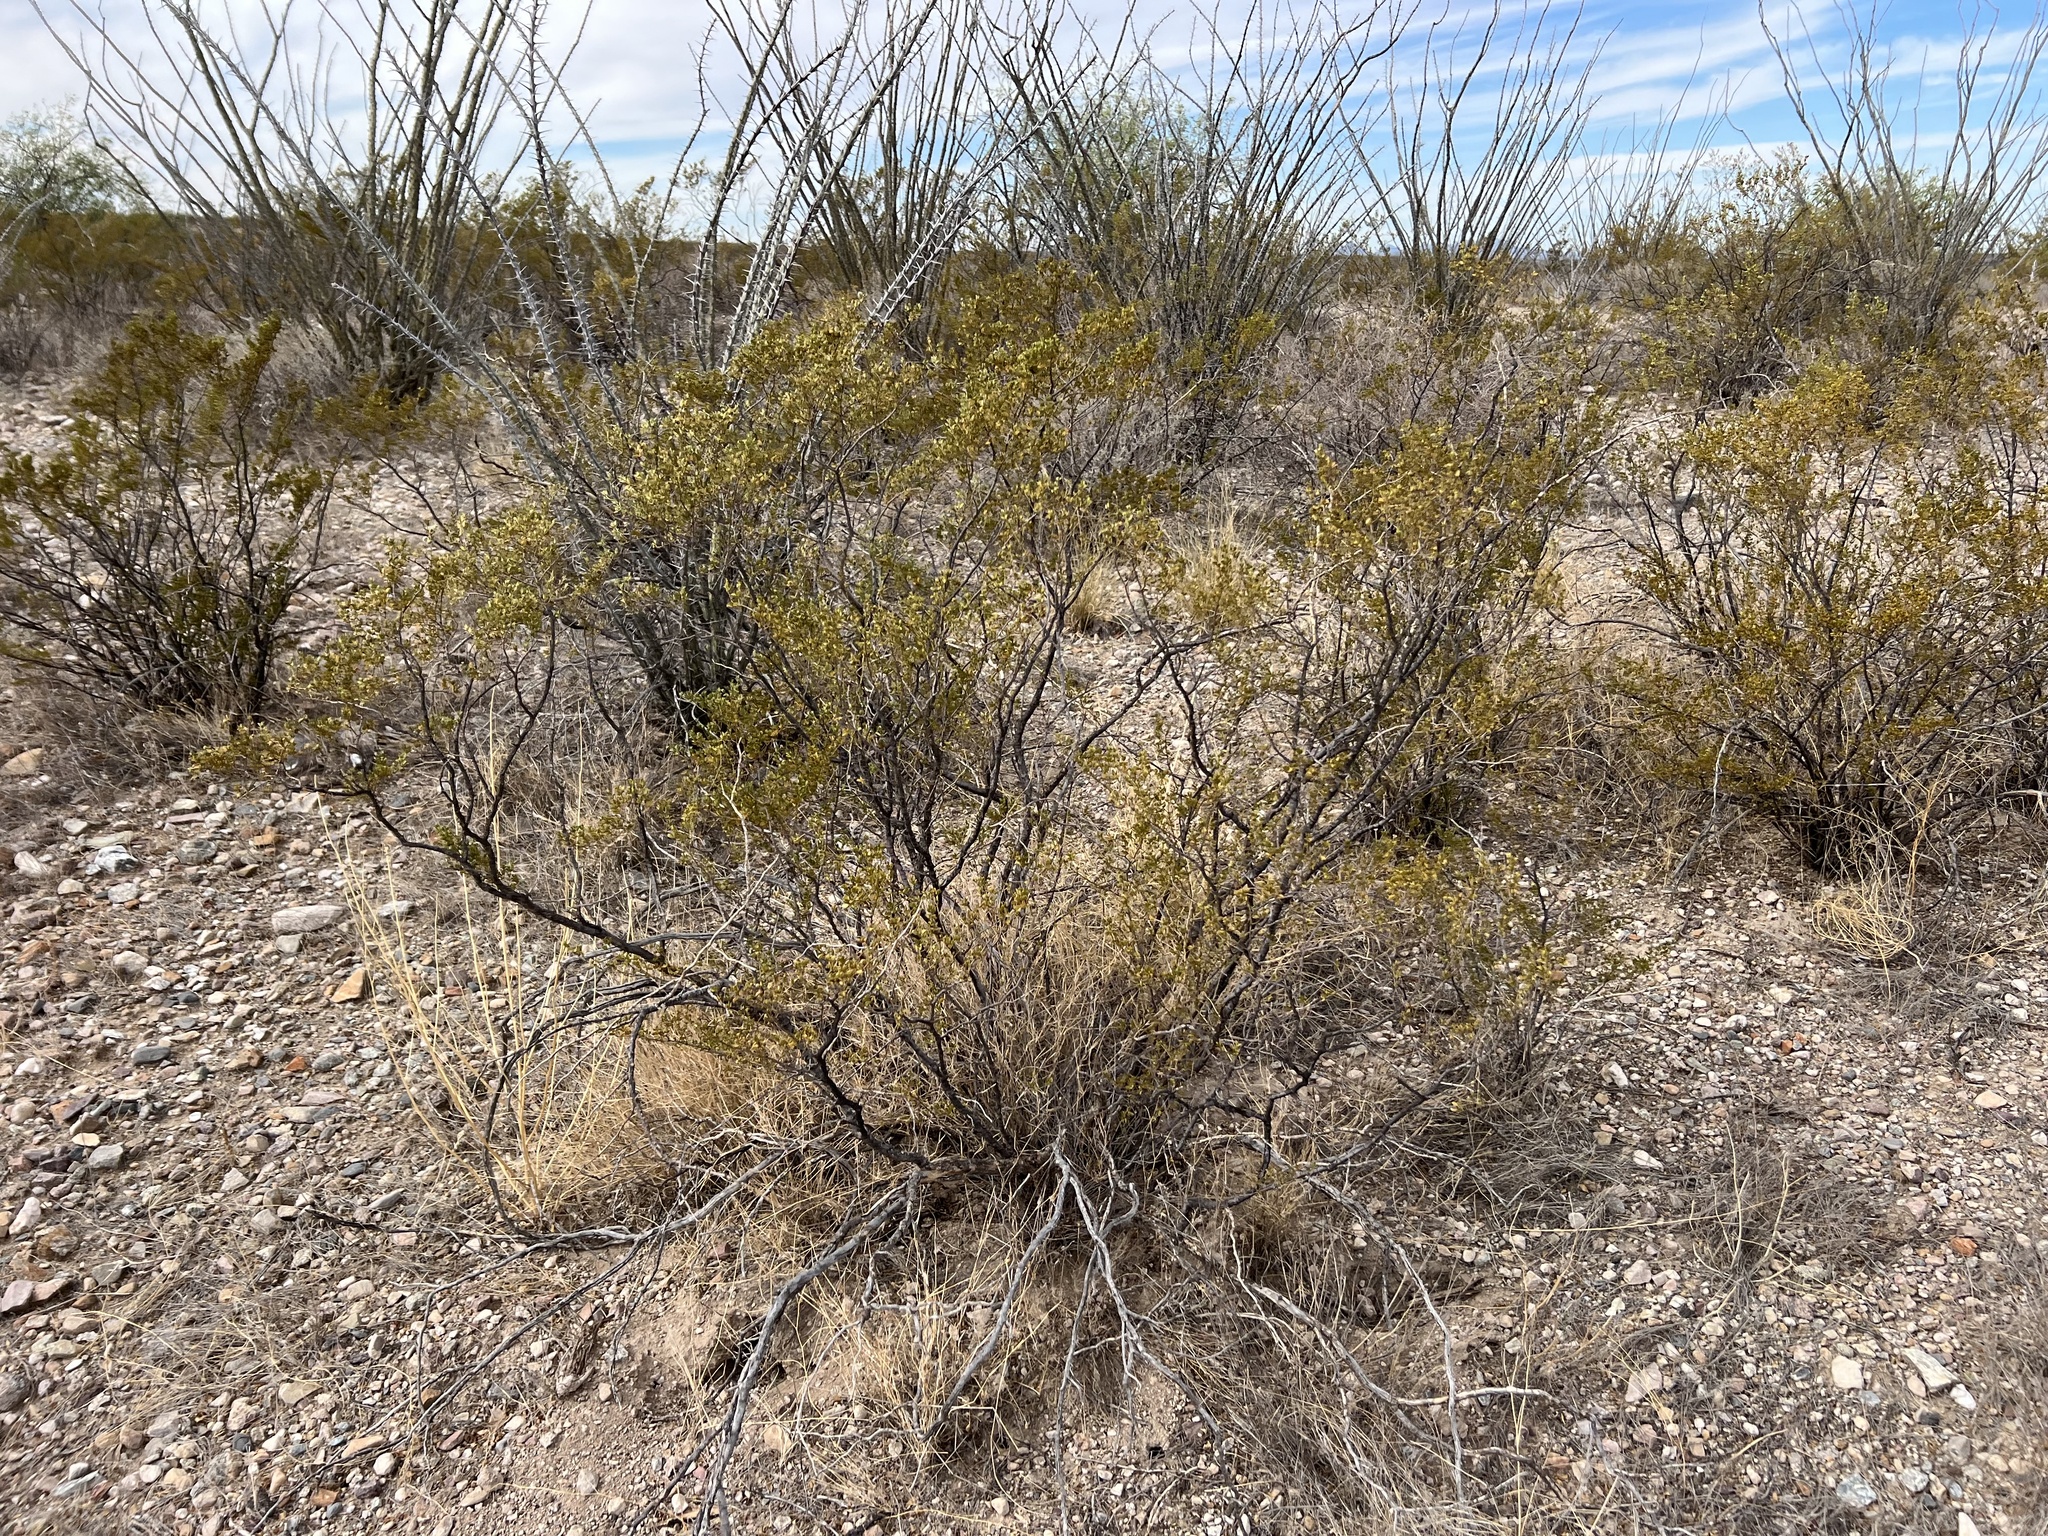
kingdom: Plantae
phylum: Tracheophyta
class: Magnoliopsida
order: Zygophyllales
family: Zygophyllaceae
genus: Larrea
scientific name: Larrea tridentata
